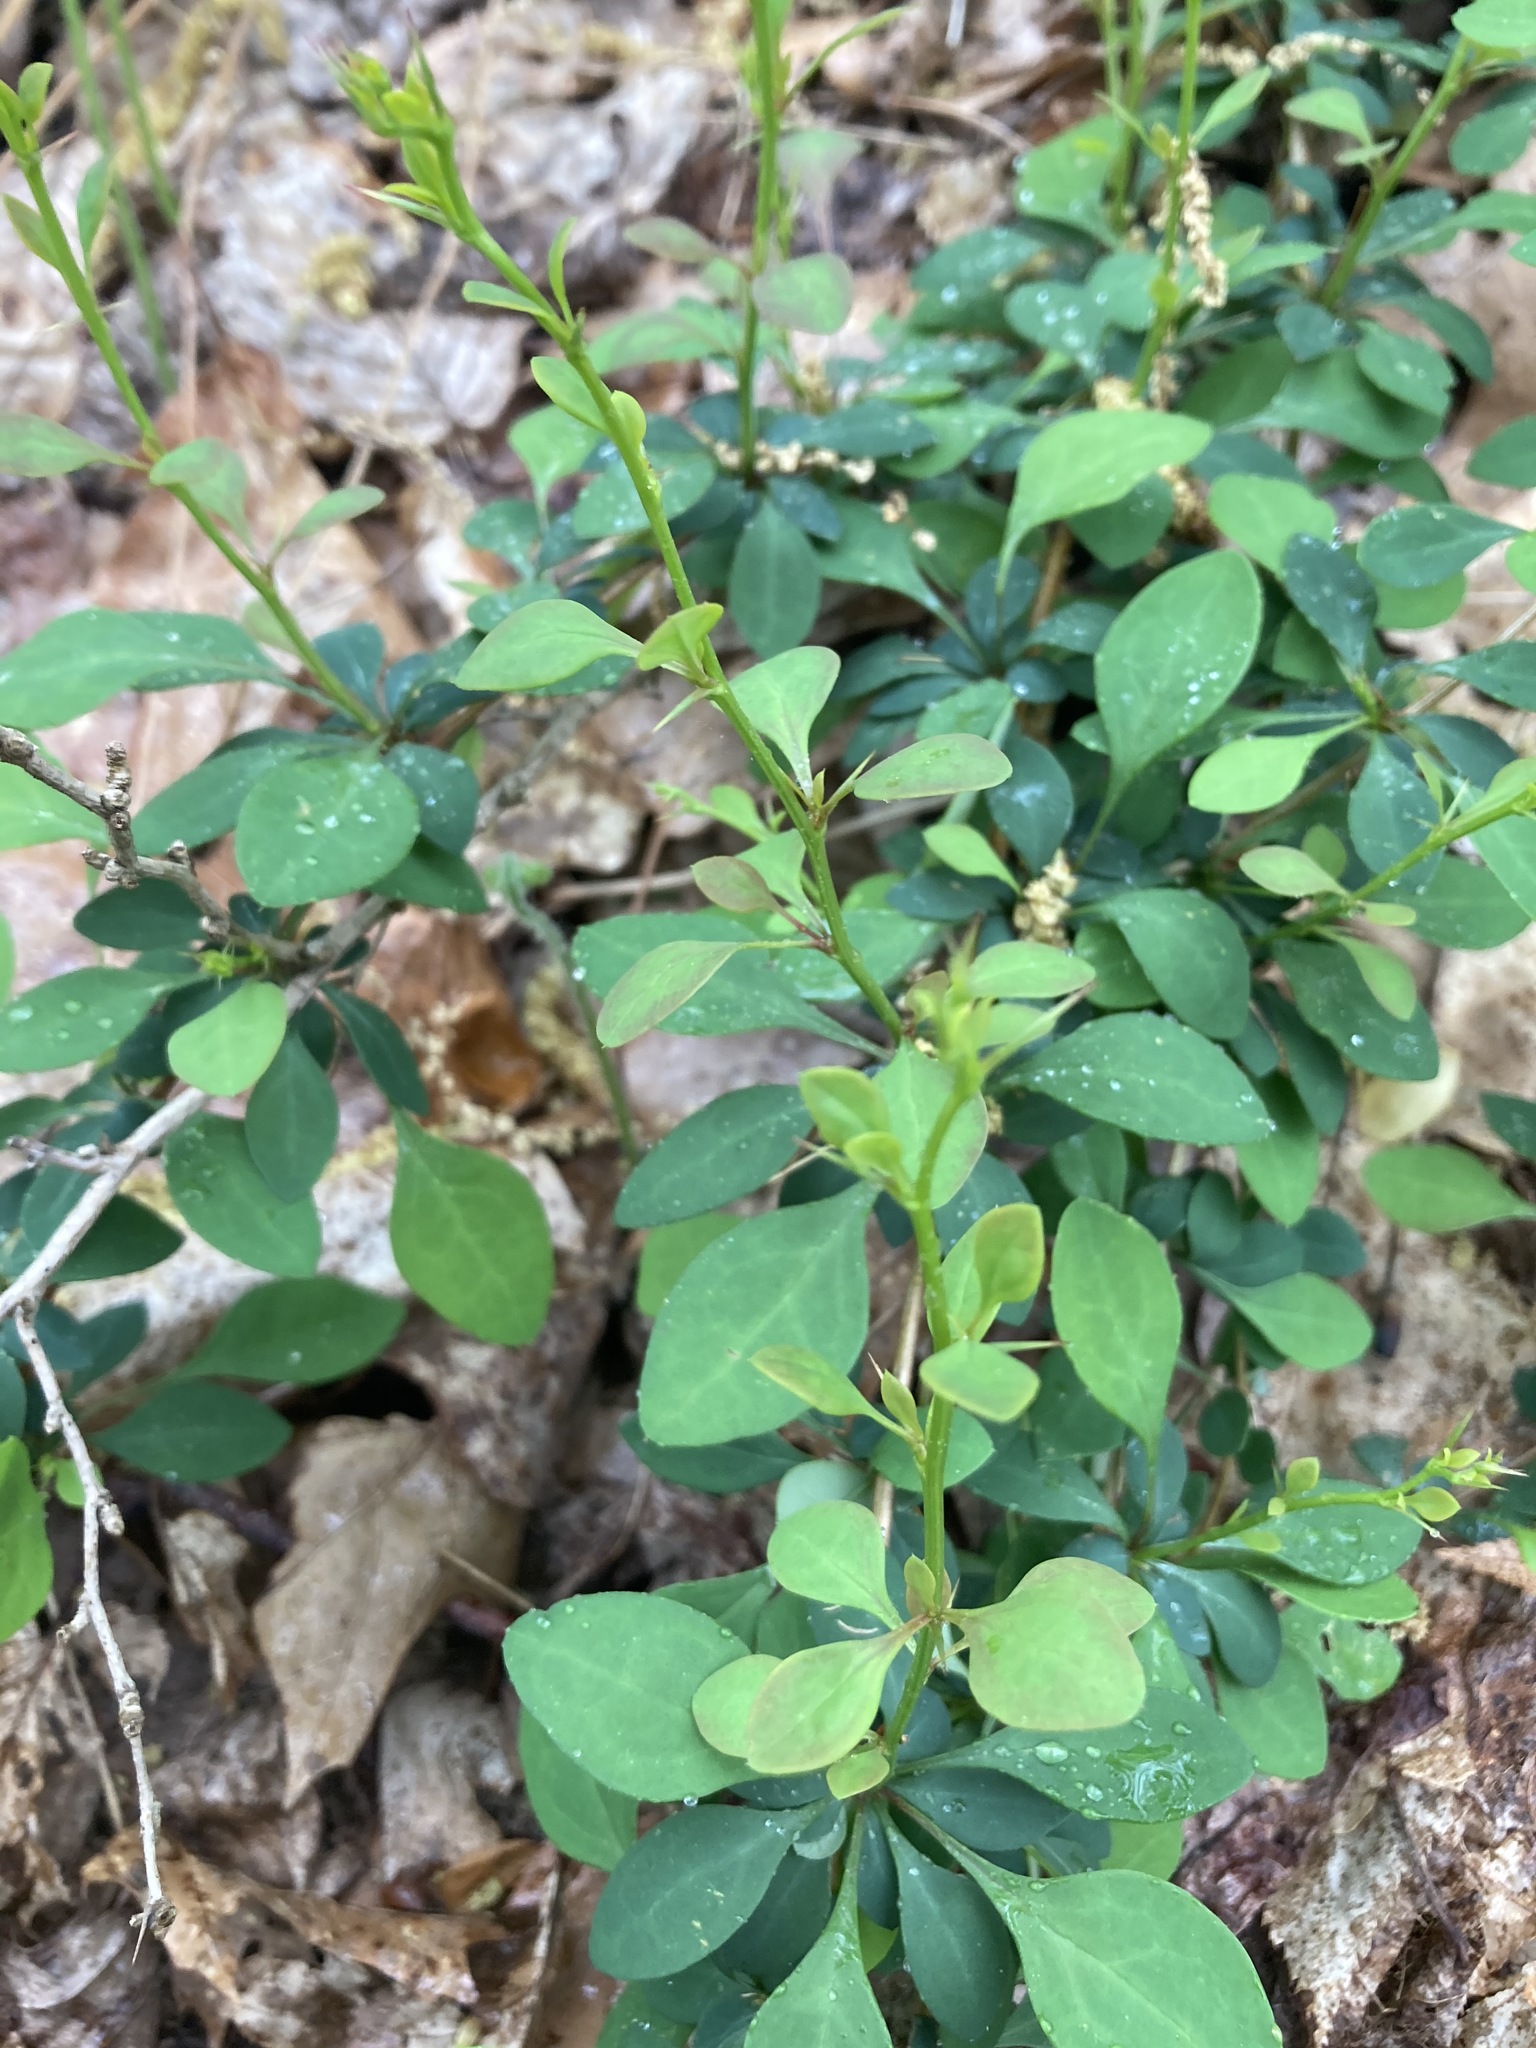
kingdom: Plantae
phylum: Tracheophyta
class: Magnoliopsida
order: Ranunculales
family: Berberidaceae
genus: Berberis
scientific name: Berberis thunbergii
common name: Japanese barberry
